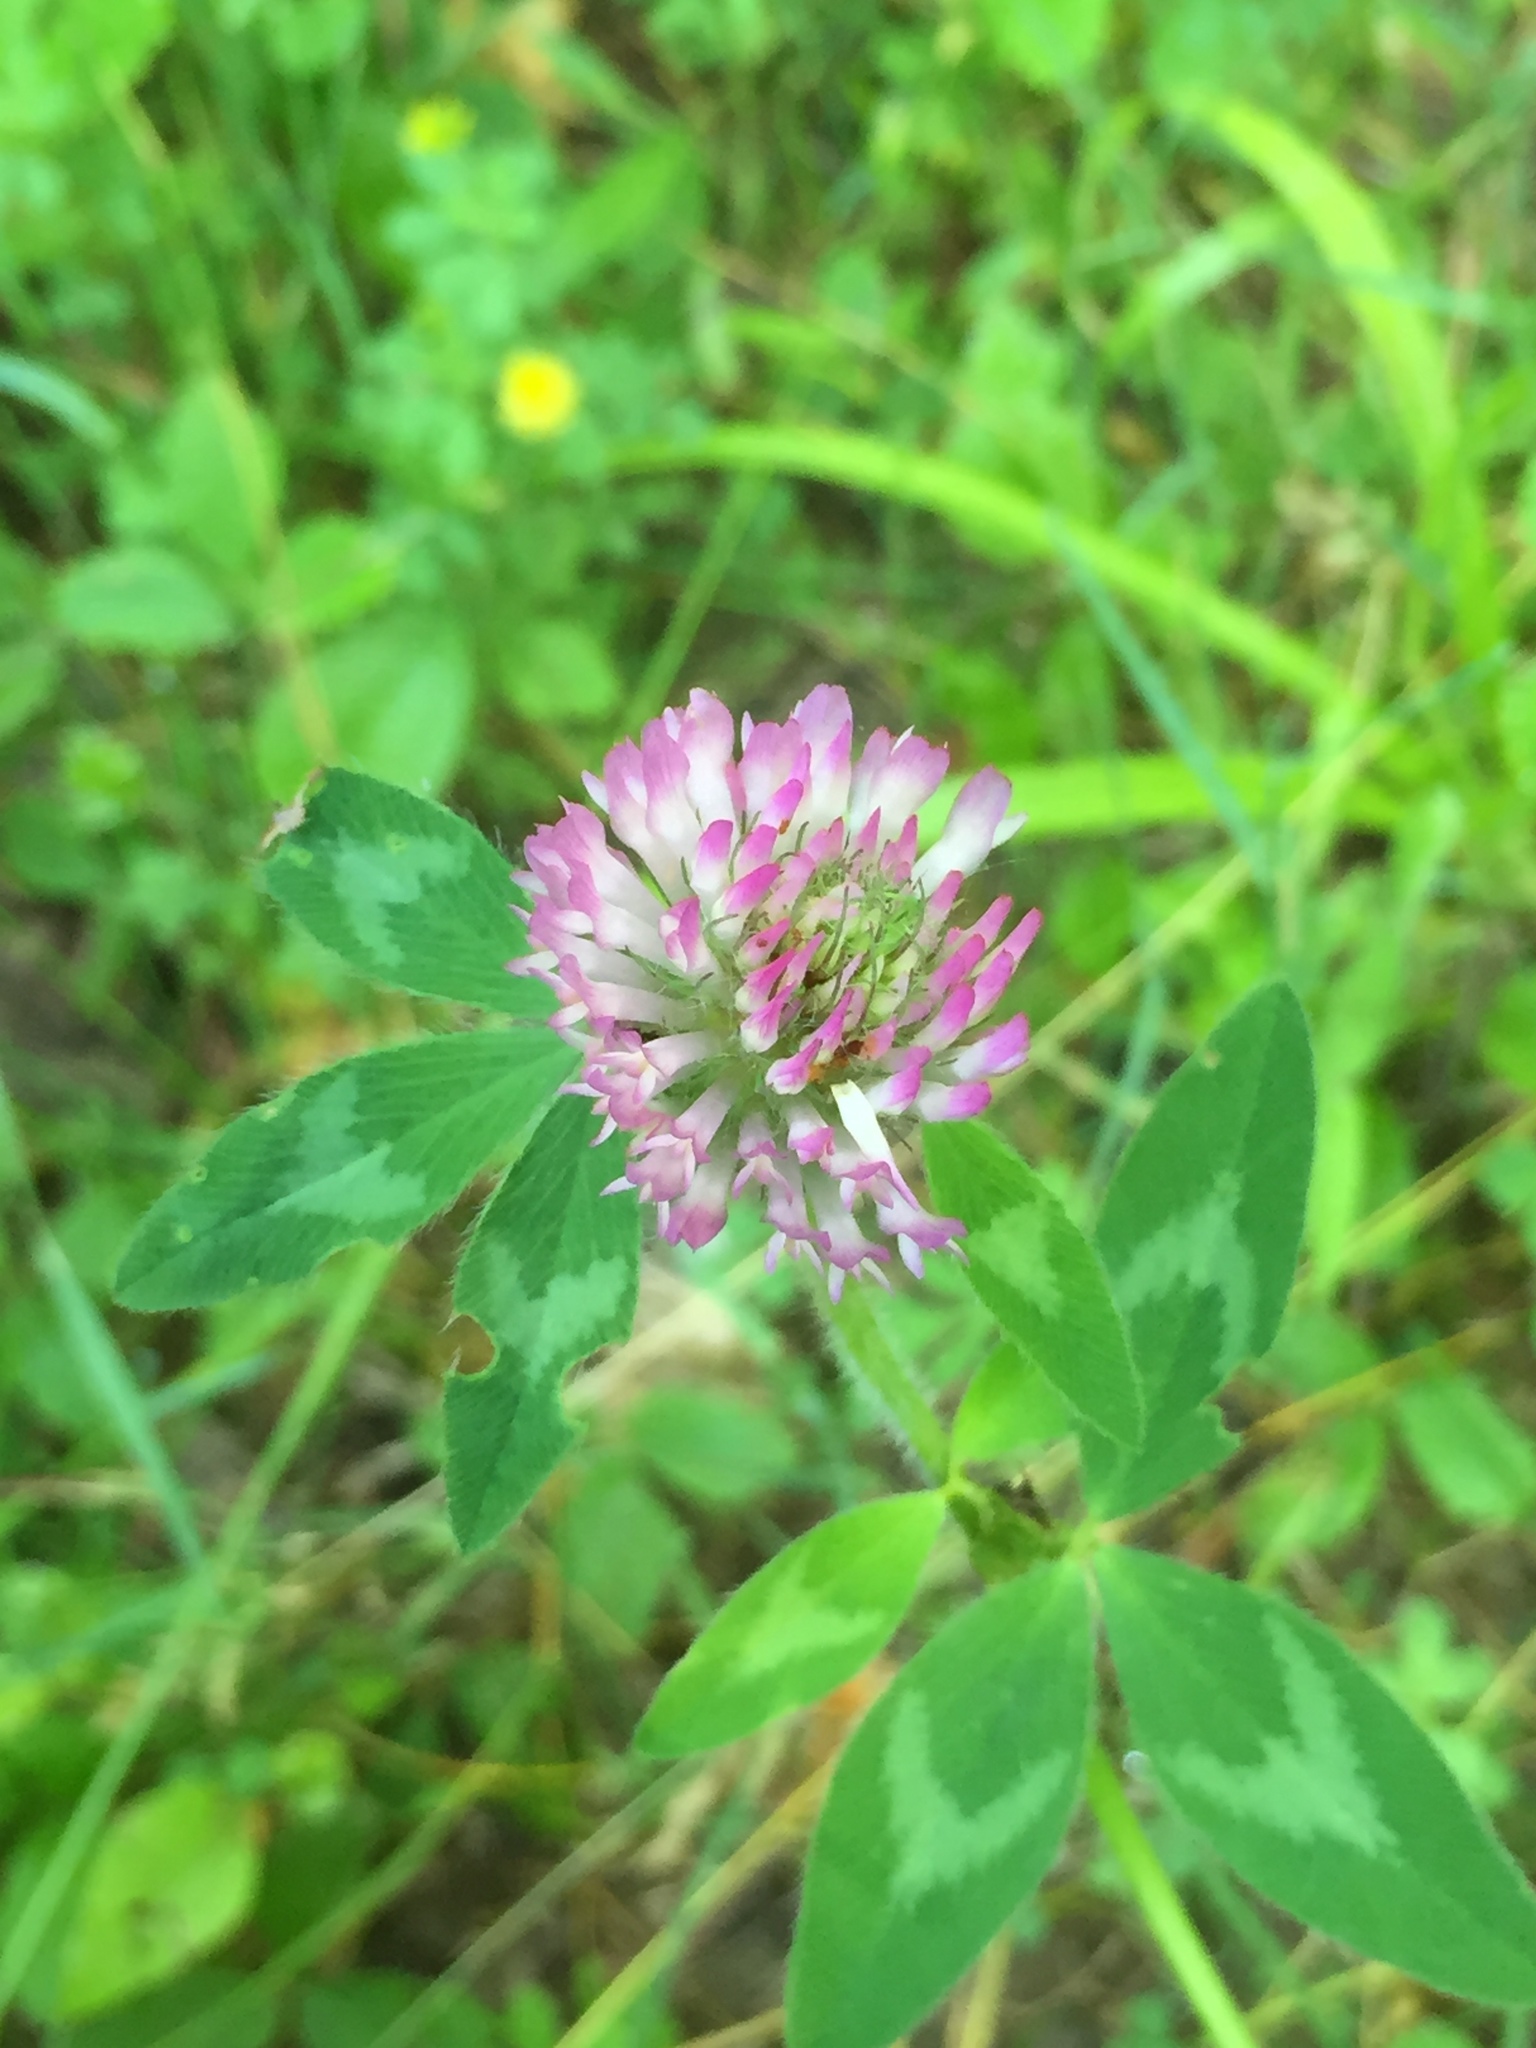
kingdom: Plantae
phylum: Tracheophyta
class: Magnoliopsida
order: Fabales
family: Fabaceae
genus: Trifolium
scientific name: Trifolium pratense
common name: Red clover
